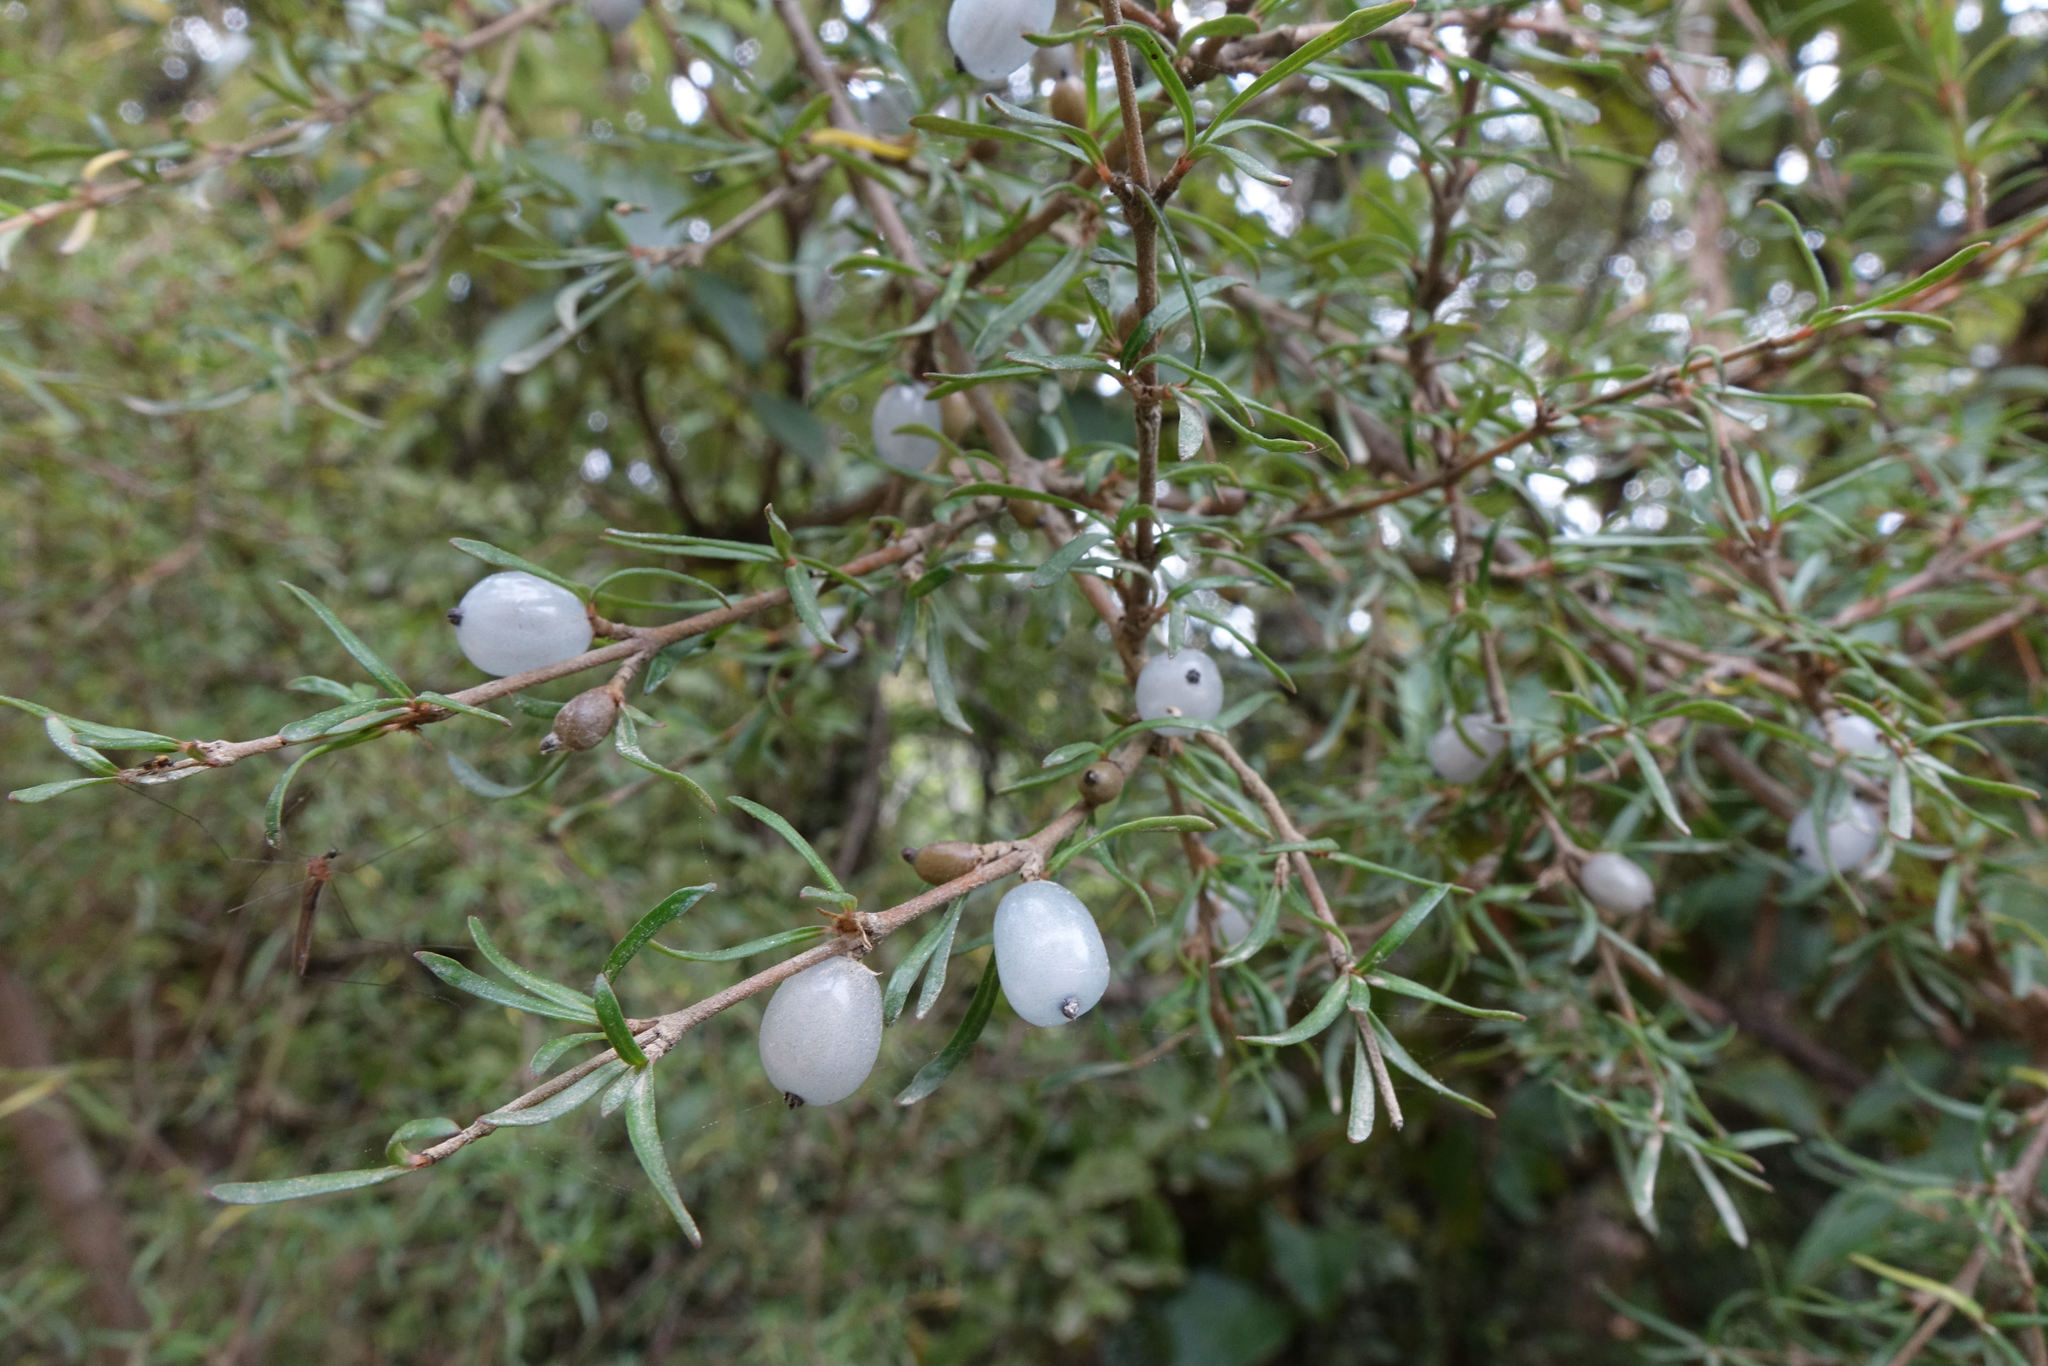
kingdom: Plantae
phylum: Tracheophyta
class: Magnoliopsida
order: Gentianales
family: Rubiaceae
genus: Coprosma
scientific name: Coprosma rugosa
